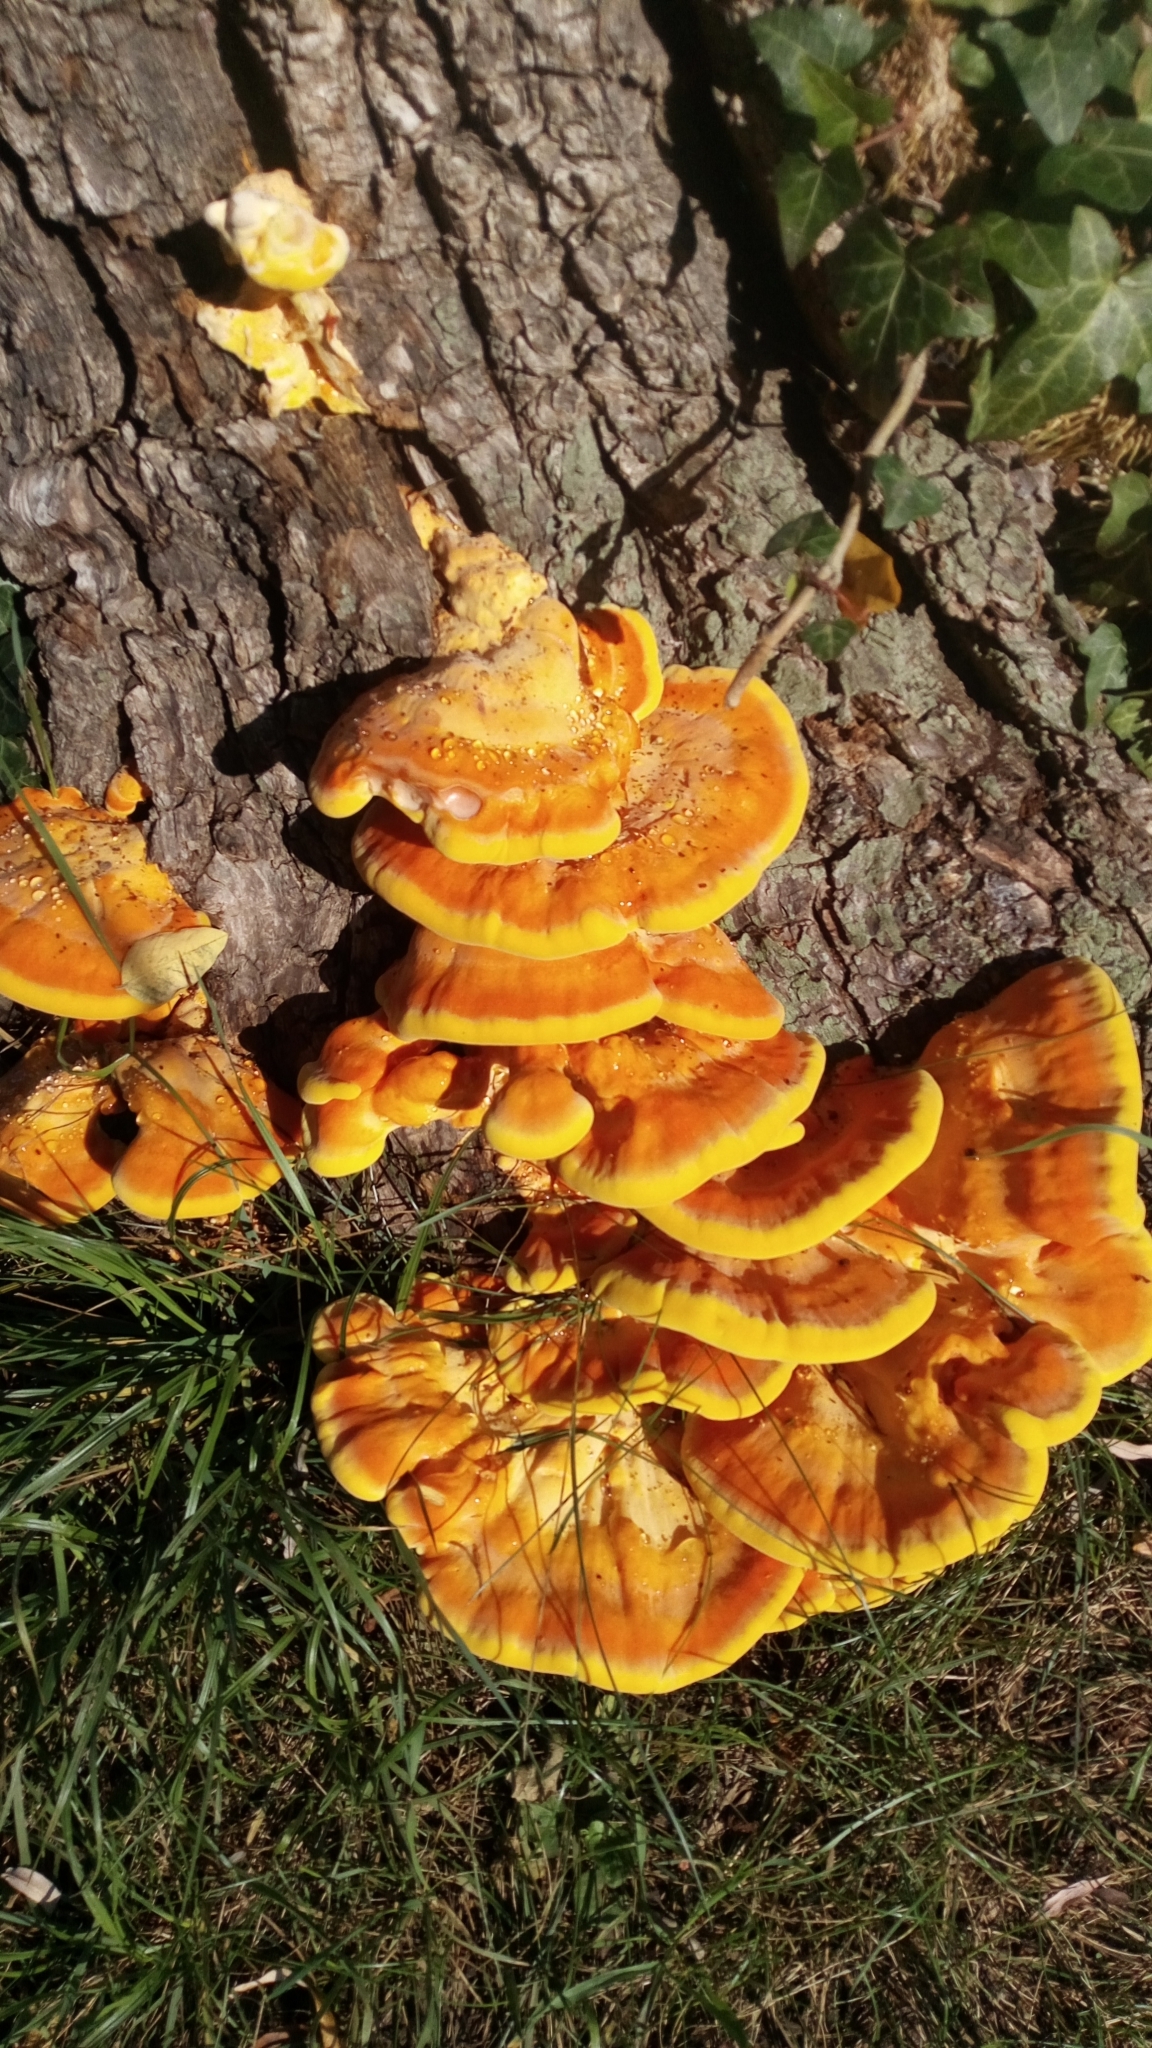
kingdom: Fungi
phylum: Basidiomycota
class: Agaricomycetes
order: Polyporales
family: Laetiporaceae
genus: Laetiporus
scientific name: Laetiporus sulphureus
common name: Chicken of the woods
